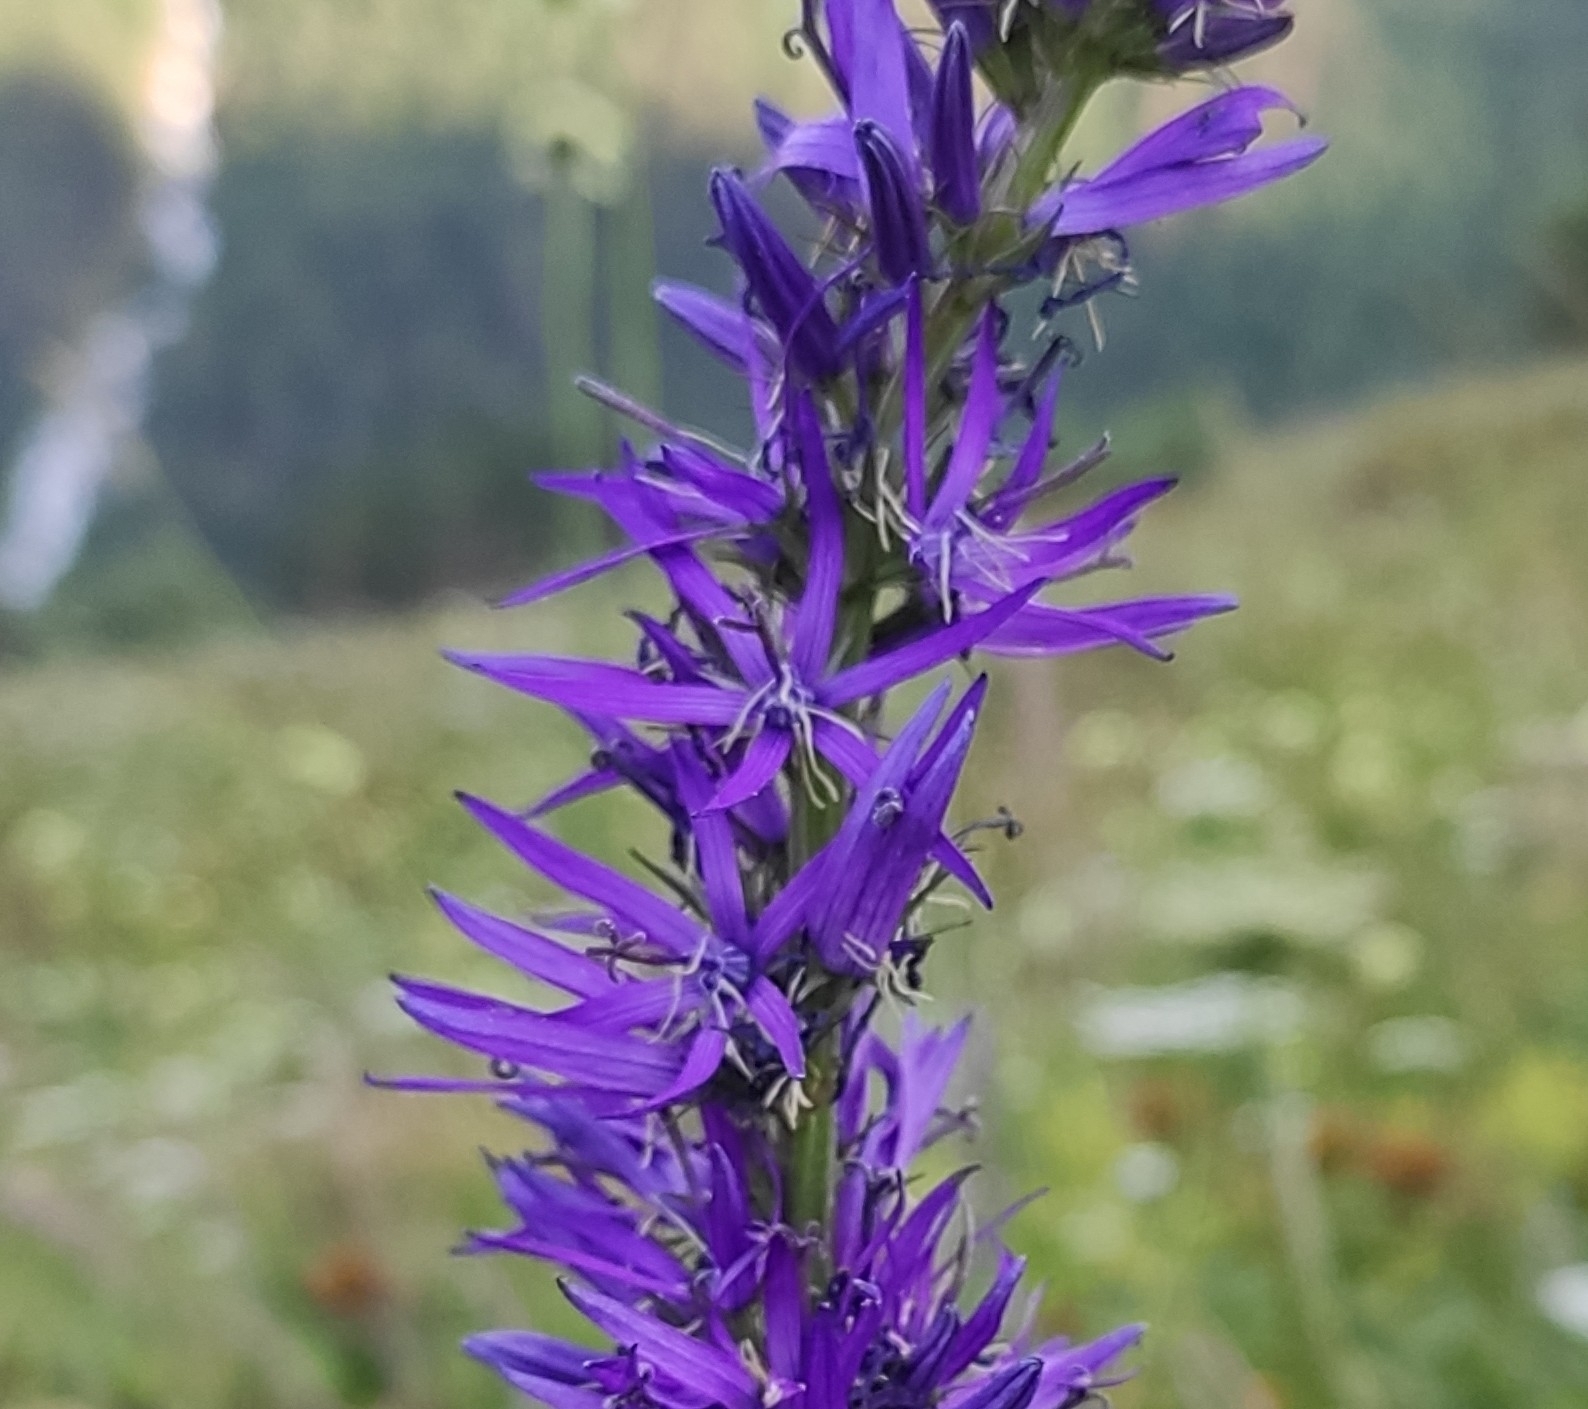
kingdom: Plantae
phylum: Tracheophyta
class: Magnoliopsida
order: Asterales
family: Campanulaceae
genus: Asyneuma
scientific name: Asyneuma campanuloides
